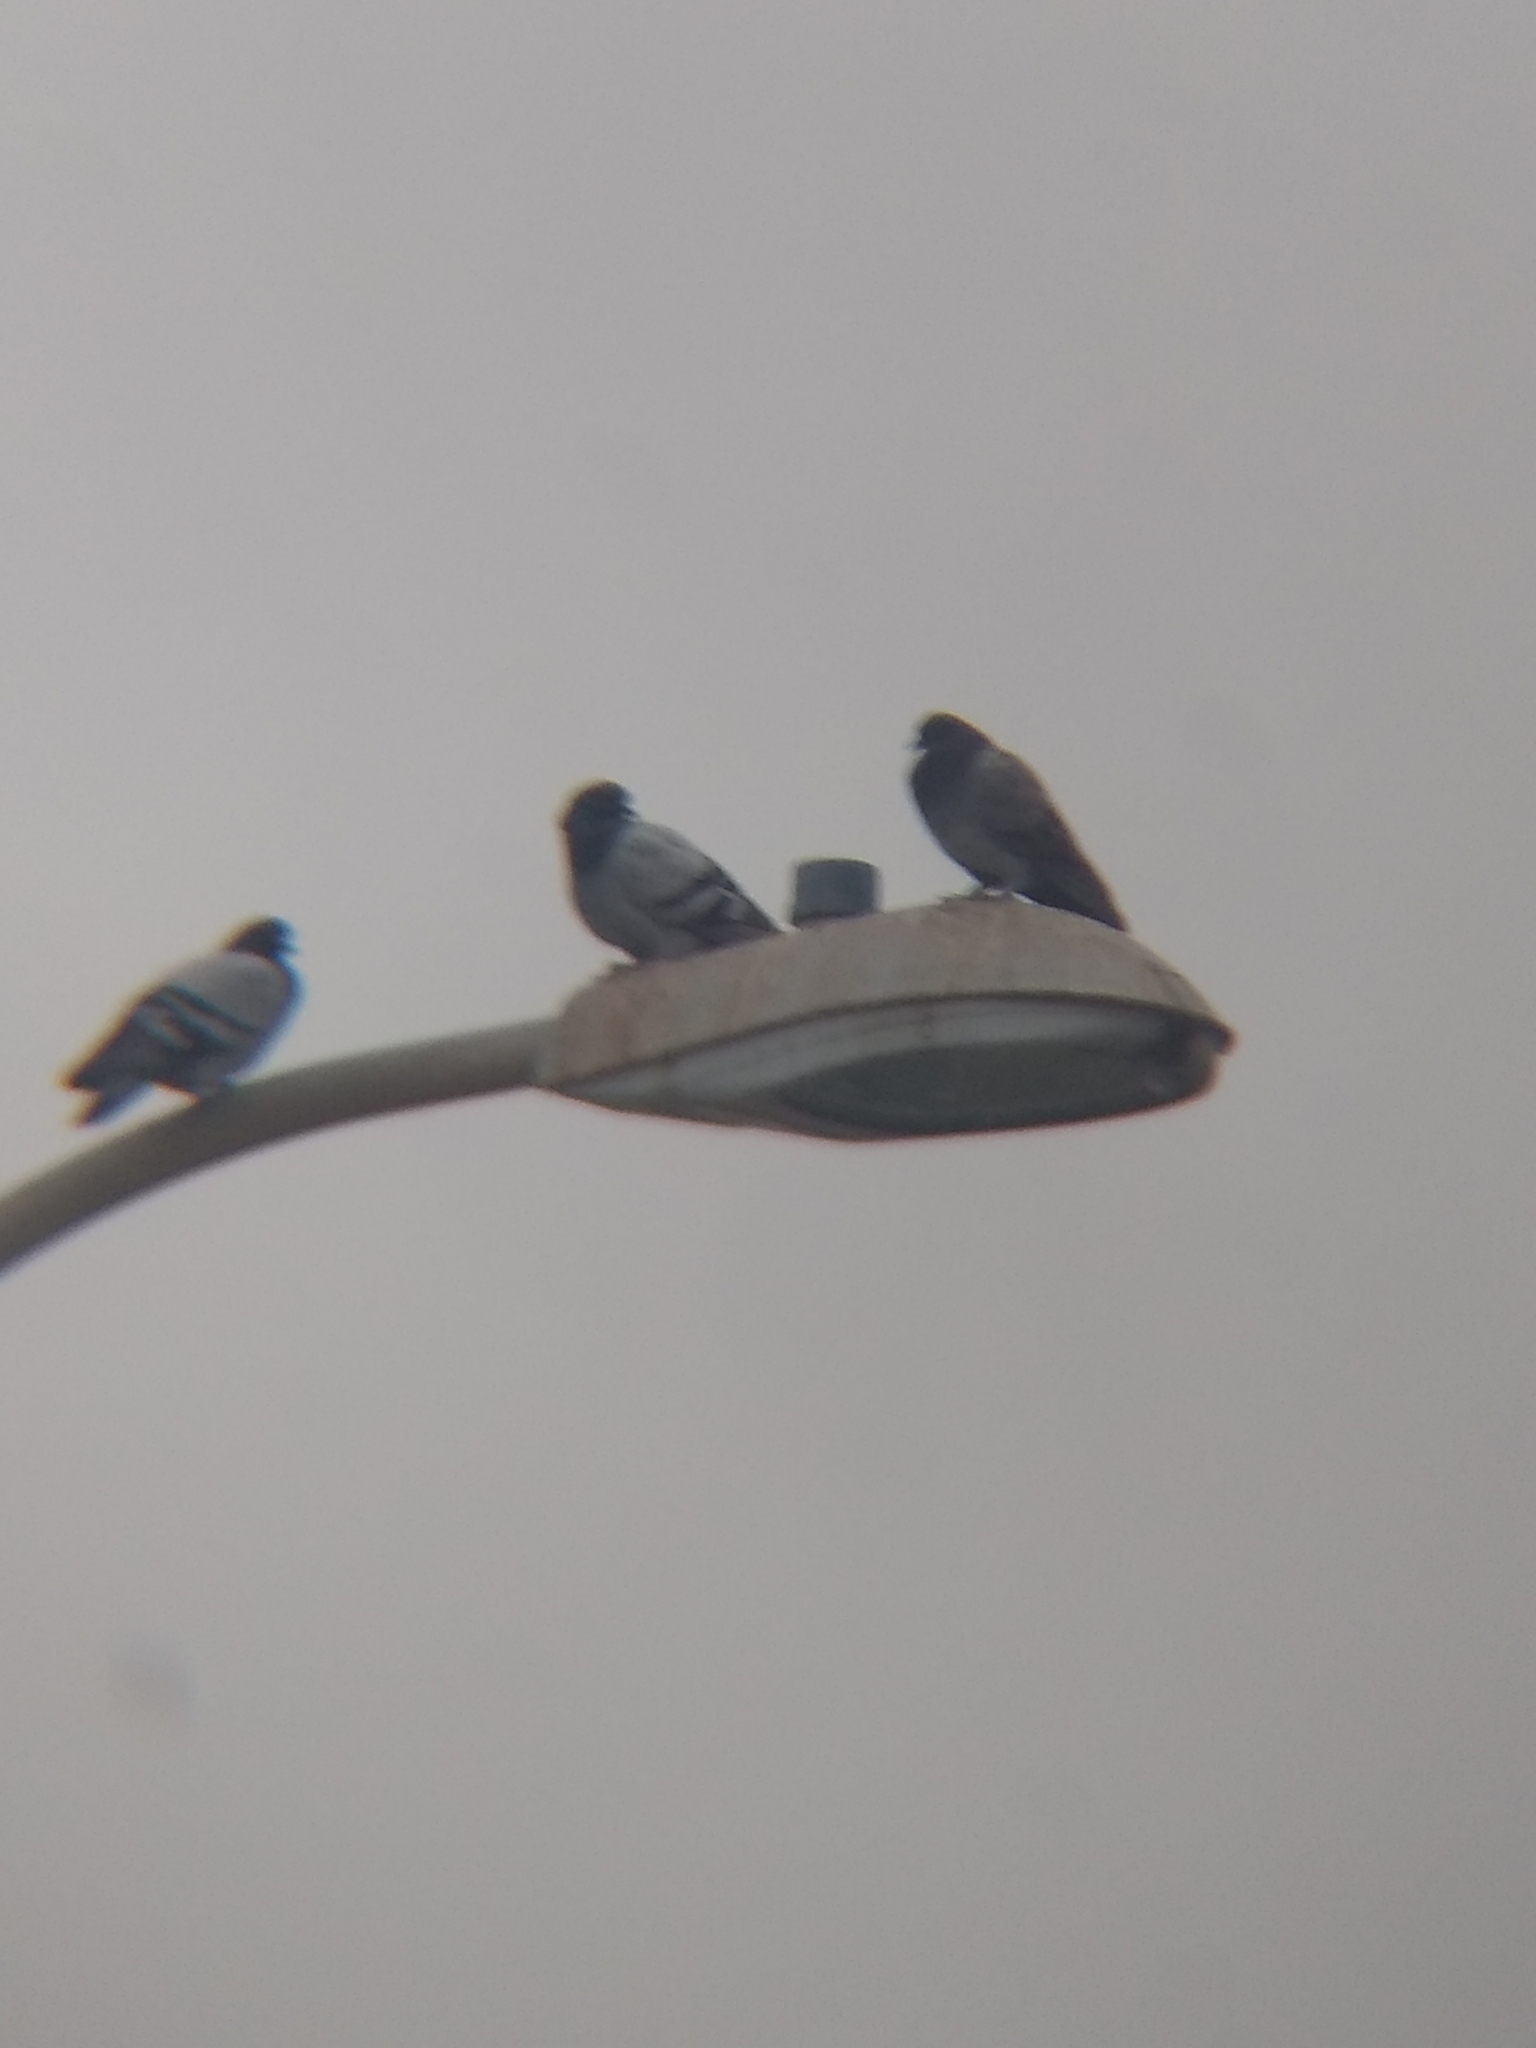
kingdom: Animalia
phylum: Chordata
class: Aves
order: Columbiformes
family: Columbidae
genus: Columba
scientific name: Columba livia
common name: Rock pigeon
